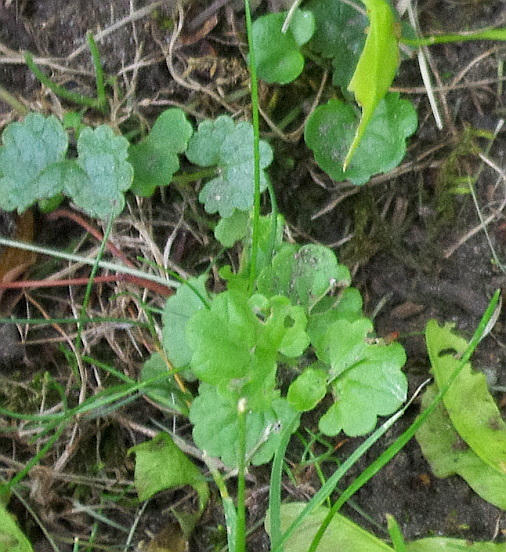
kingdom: Plantae
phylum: Tracheophyta
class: Magnoliopsida
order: Lamiales
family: Lamiaceae
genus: Glechoma
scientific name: Glechoma hederacea
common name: Ground ivy
